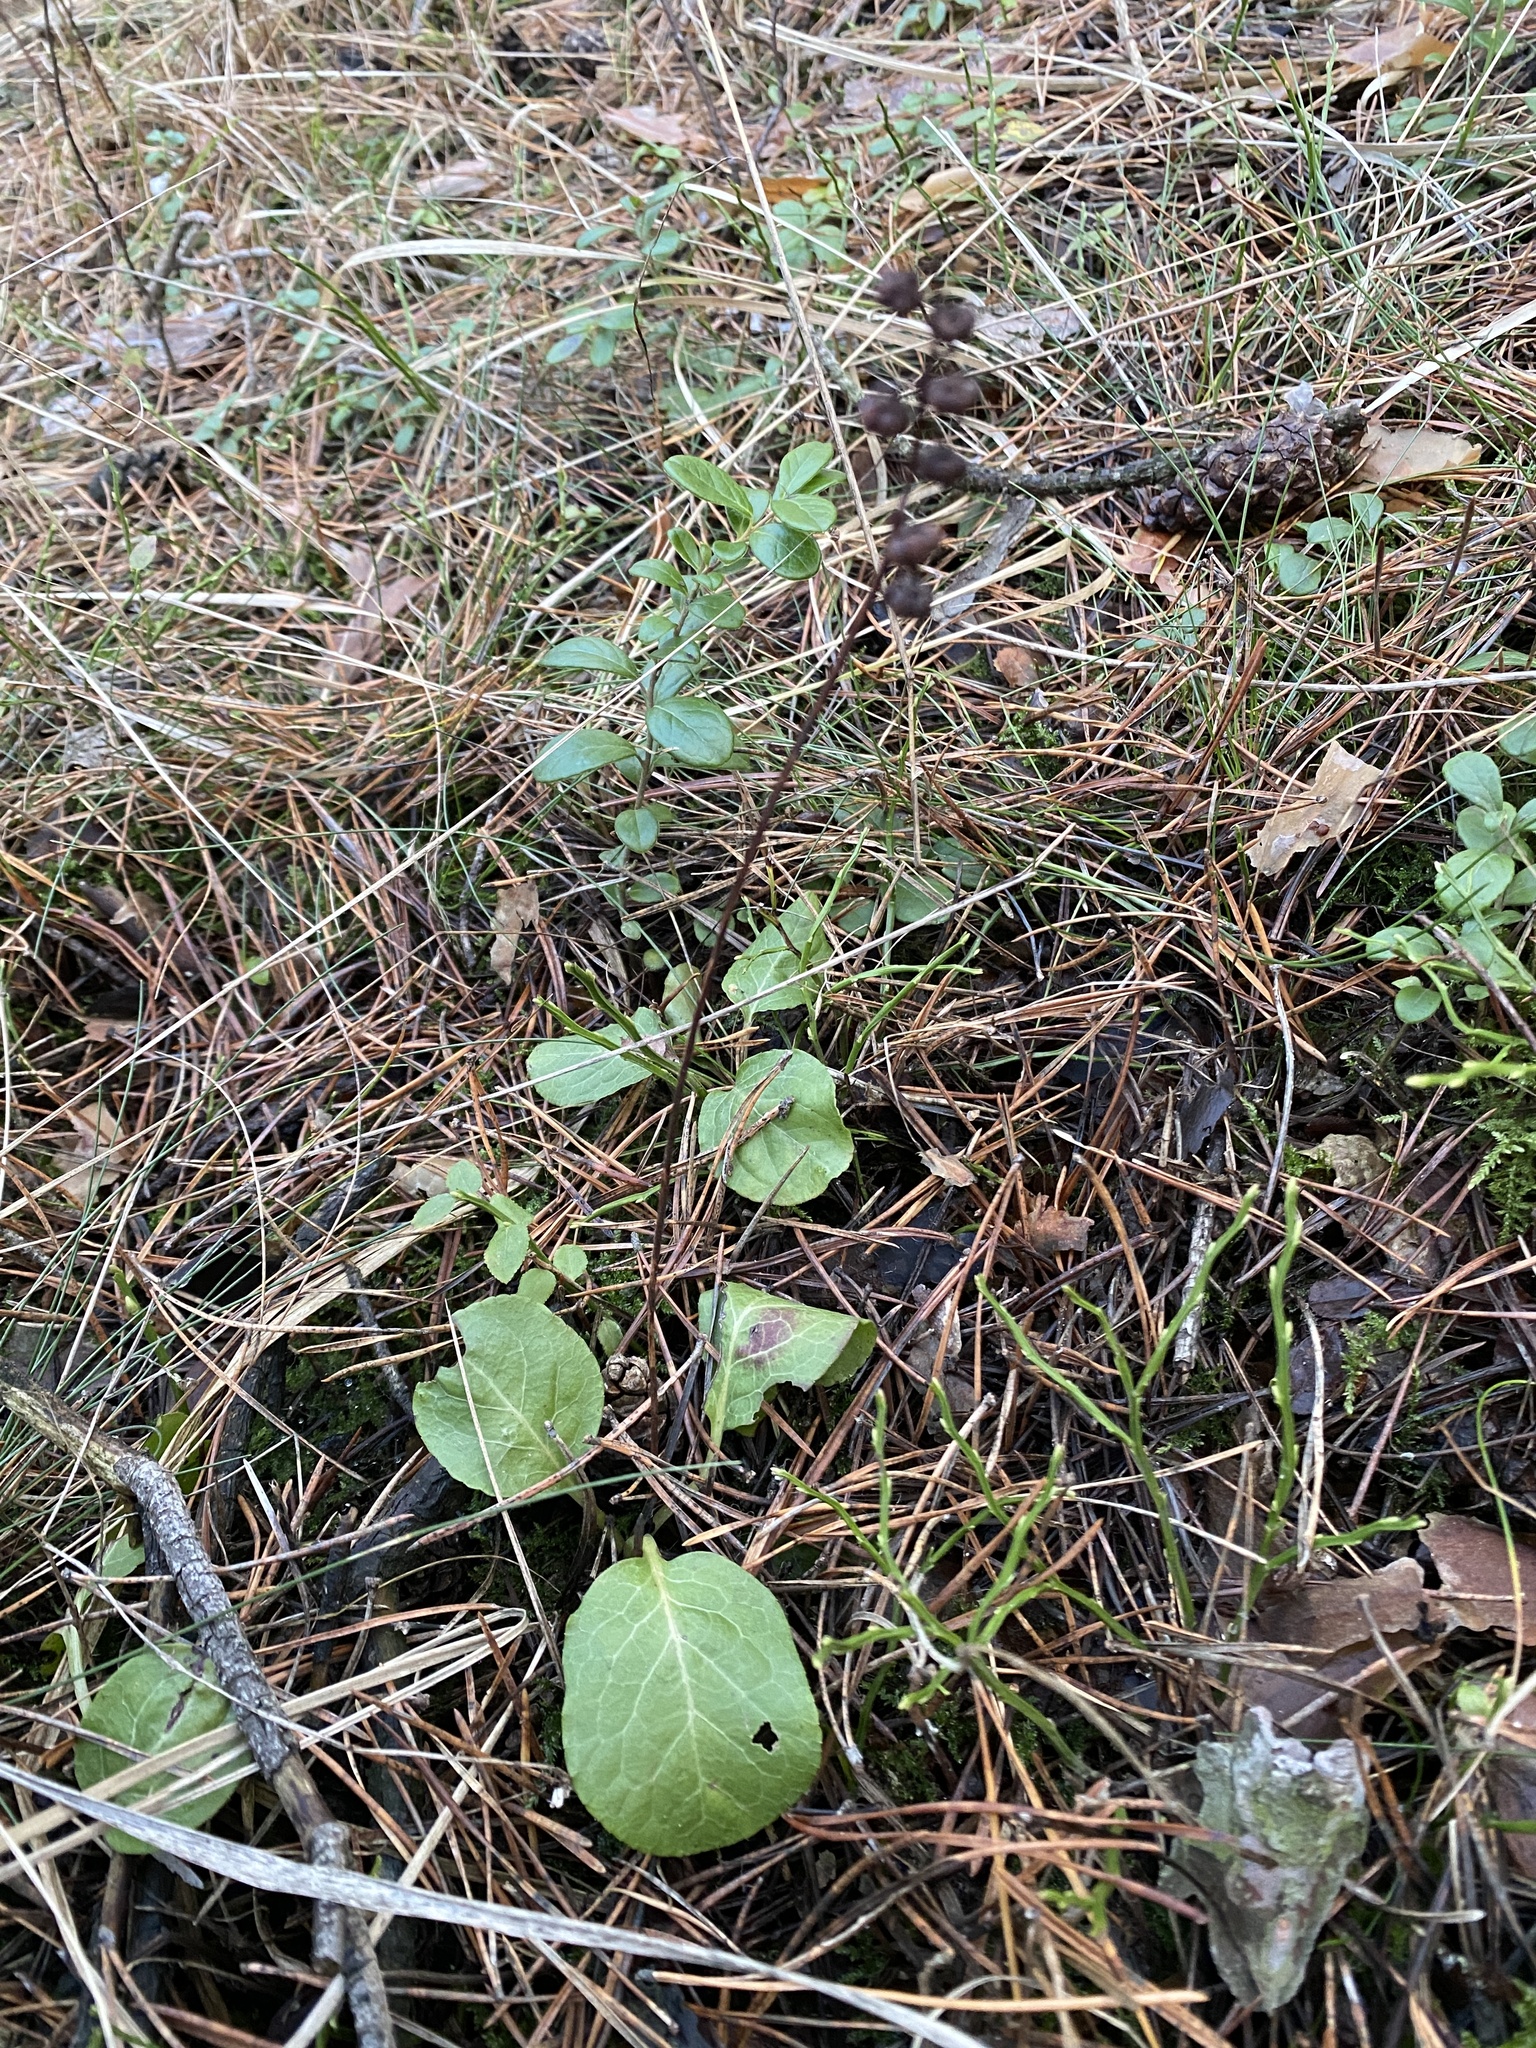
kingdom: Plantae
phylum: Tracheophyta
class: Magnoliopsida
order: Ericales
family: Ericaceae
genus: Pyrola
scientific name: Pyrola minor
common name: Common wintergreen
